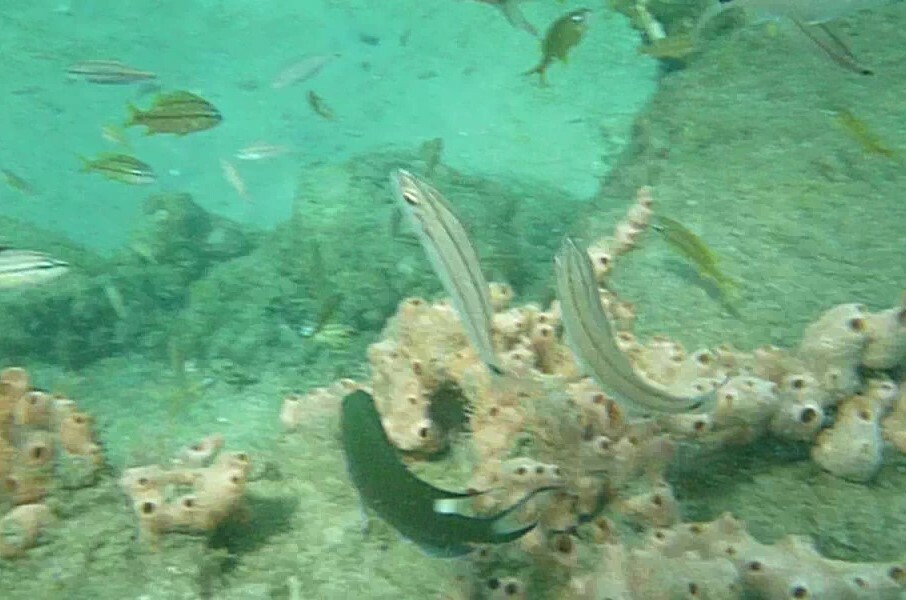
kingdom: Animalia
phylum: Chordata
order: Perciformes
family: Pomacentridae
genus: Neopomacentrus
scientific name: Neopomacentrus cyanomos
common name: Regal demoiselle
